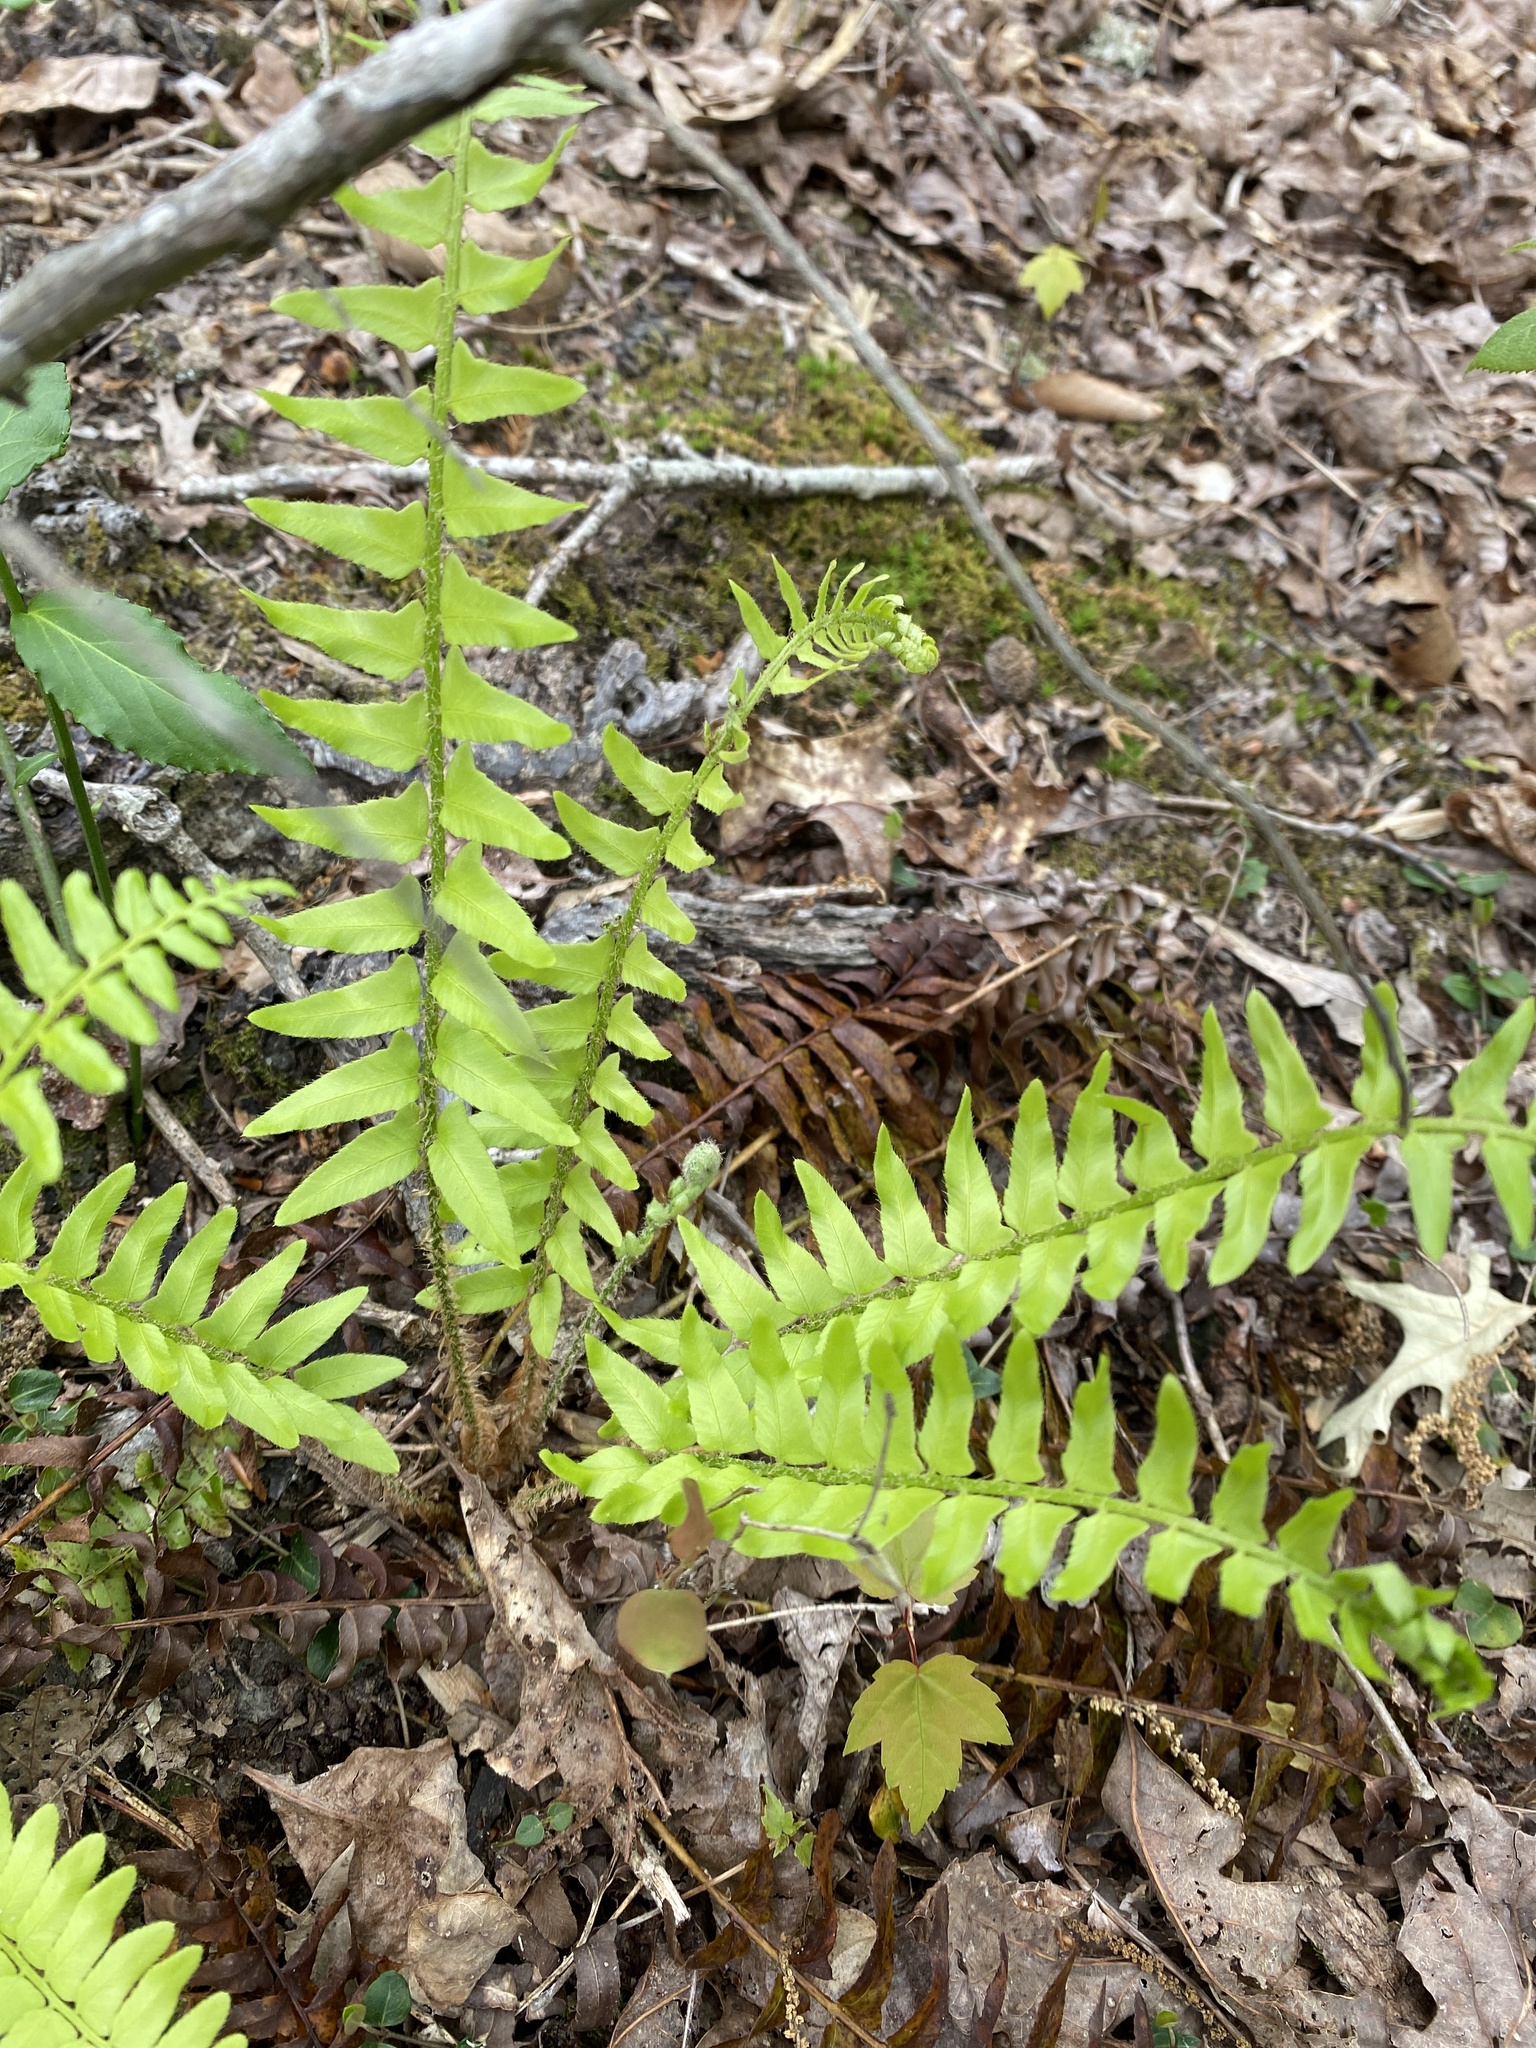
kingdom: Plantae
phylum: Tracheophyta
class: Polypodiopsida
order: Polypodiales
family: Dryopteridaceae
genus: Polystichum
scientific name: Polystichum acrostichoides
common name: Christmas fern
